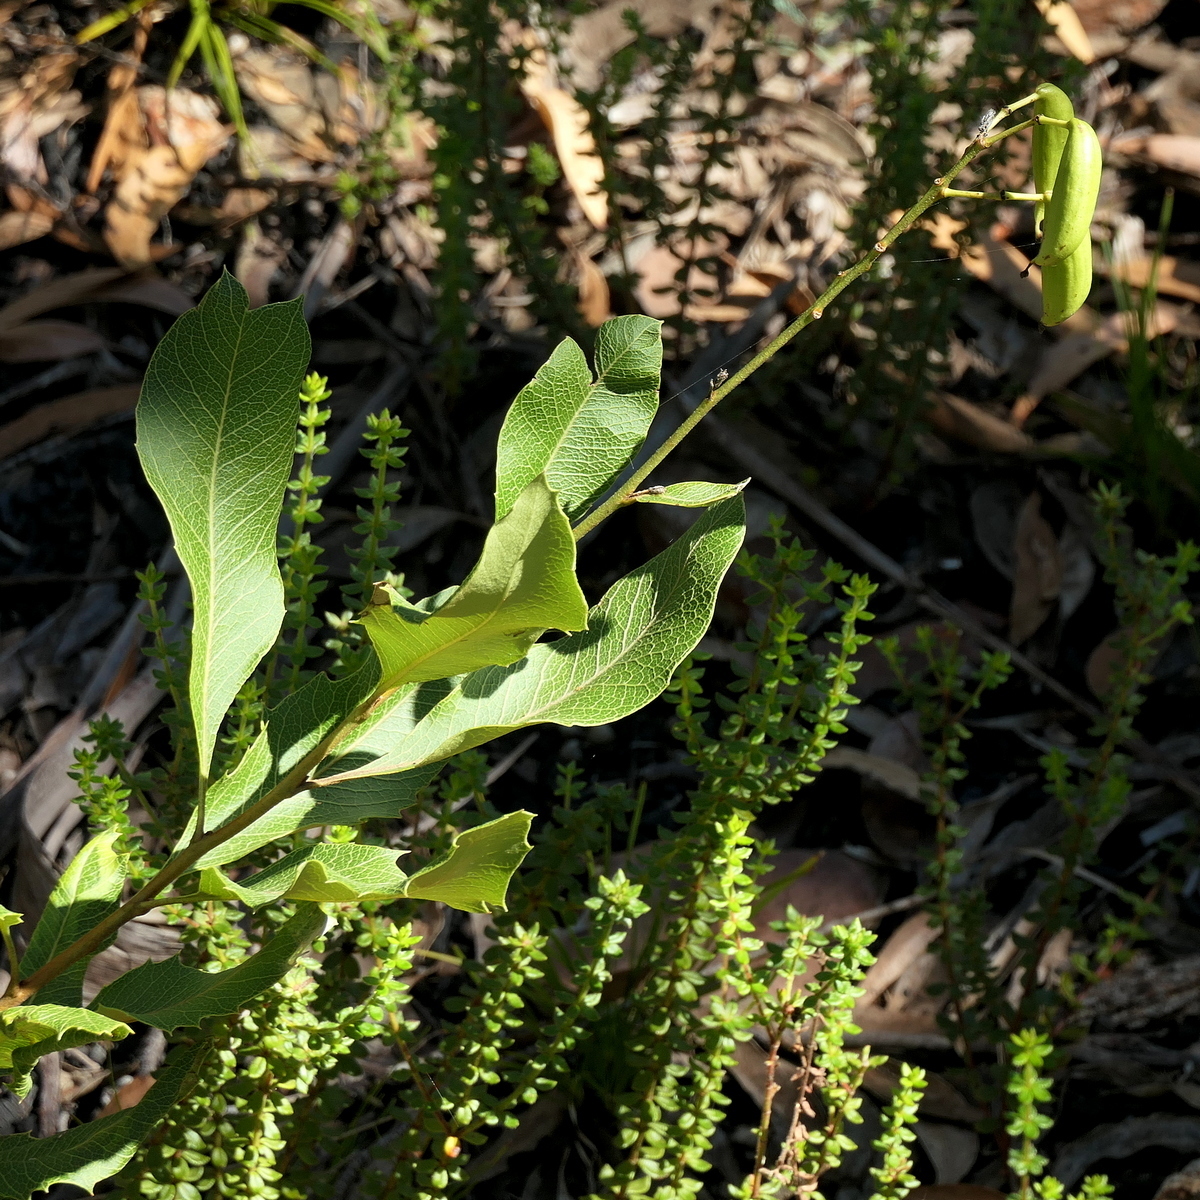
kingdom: Plantae
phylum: Tracheophyta
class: Magnoliopsida
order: Proteales
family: Proteaceae
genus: Lomatia
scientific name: Lomatia ilicifolia
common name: Native-holly
